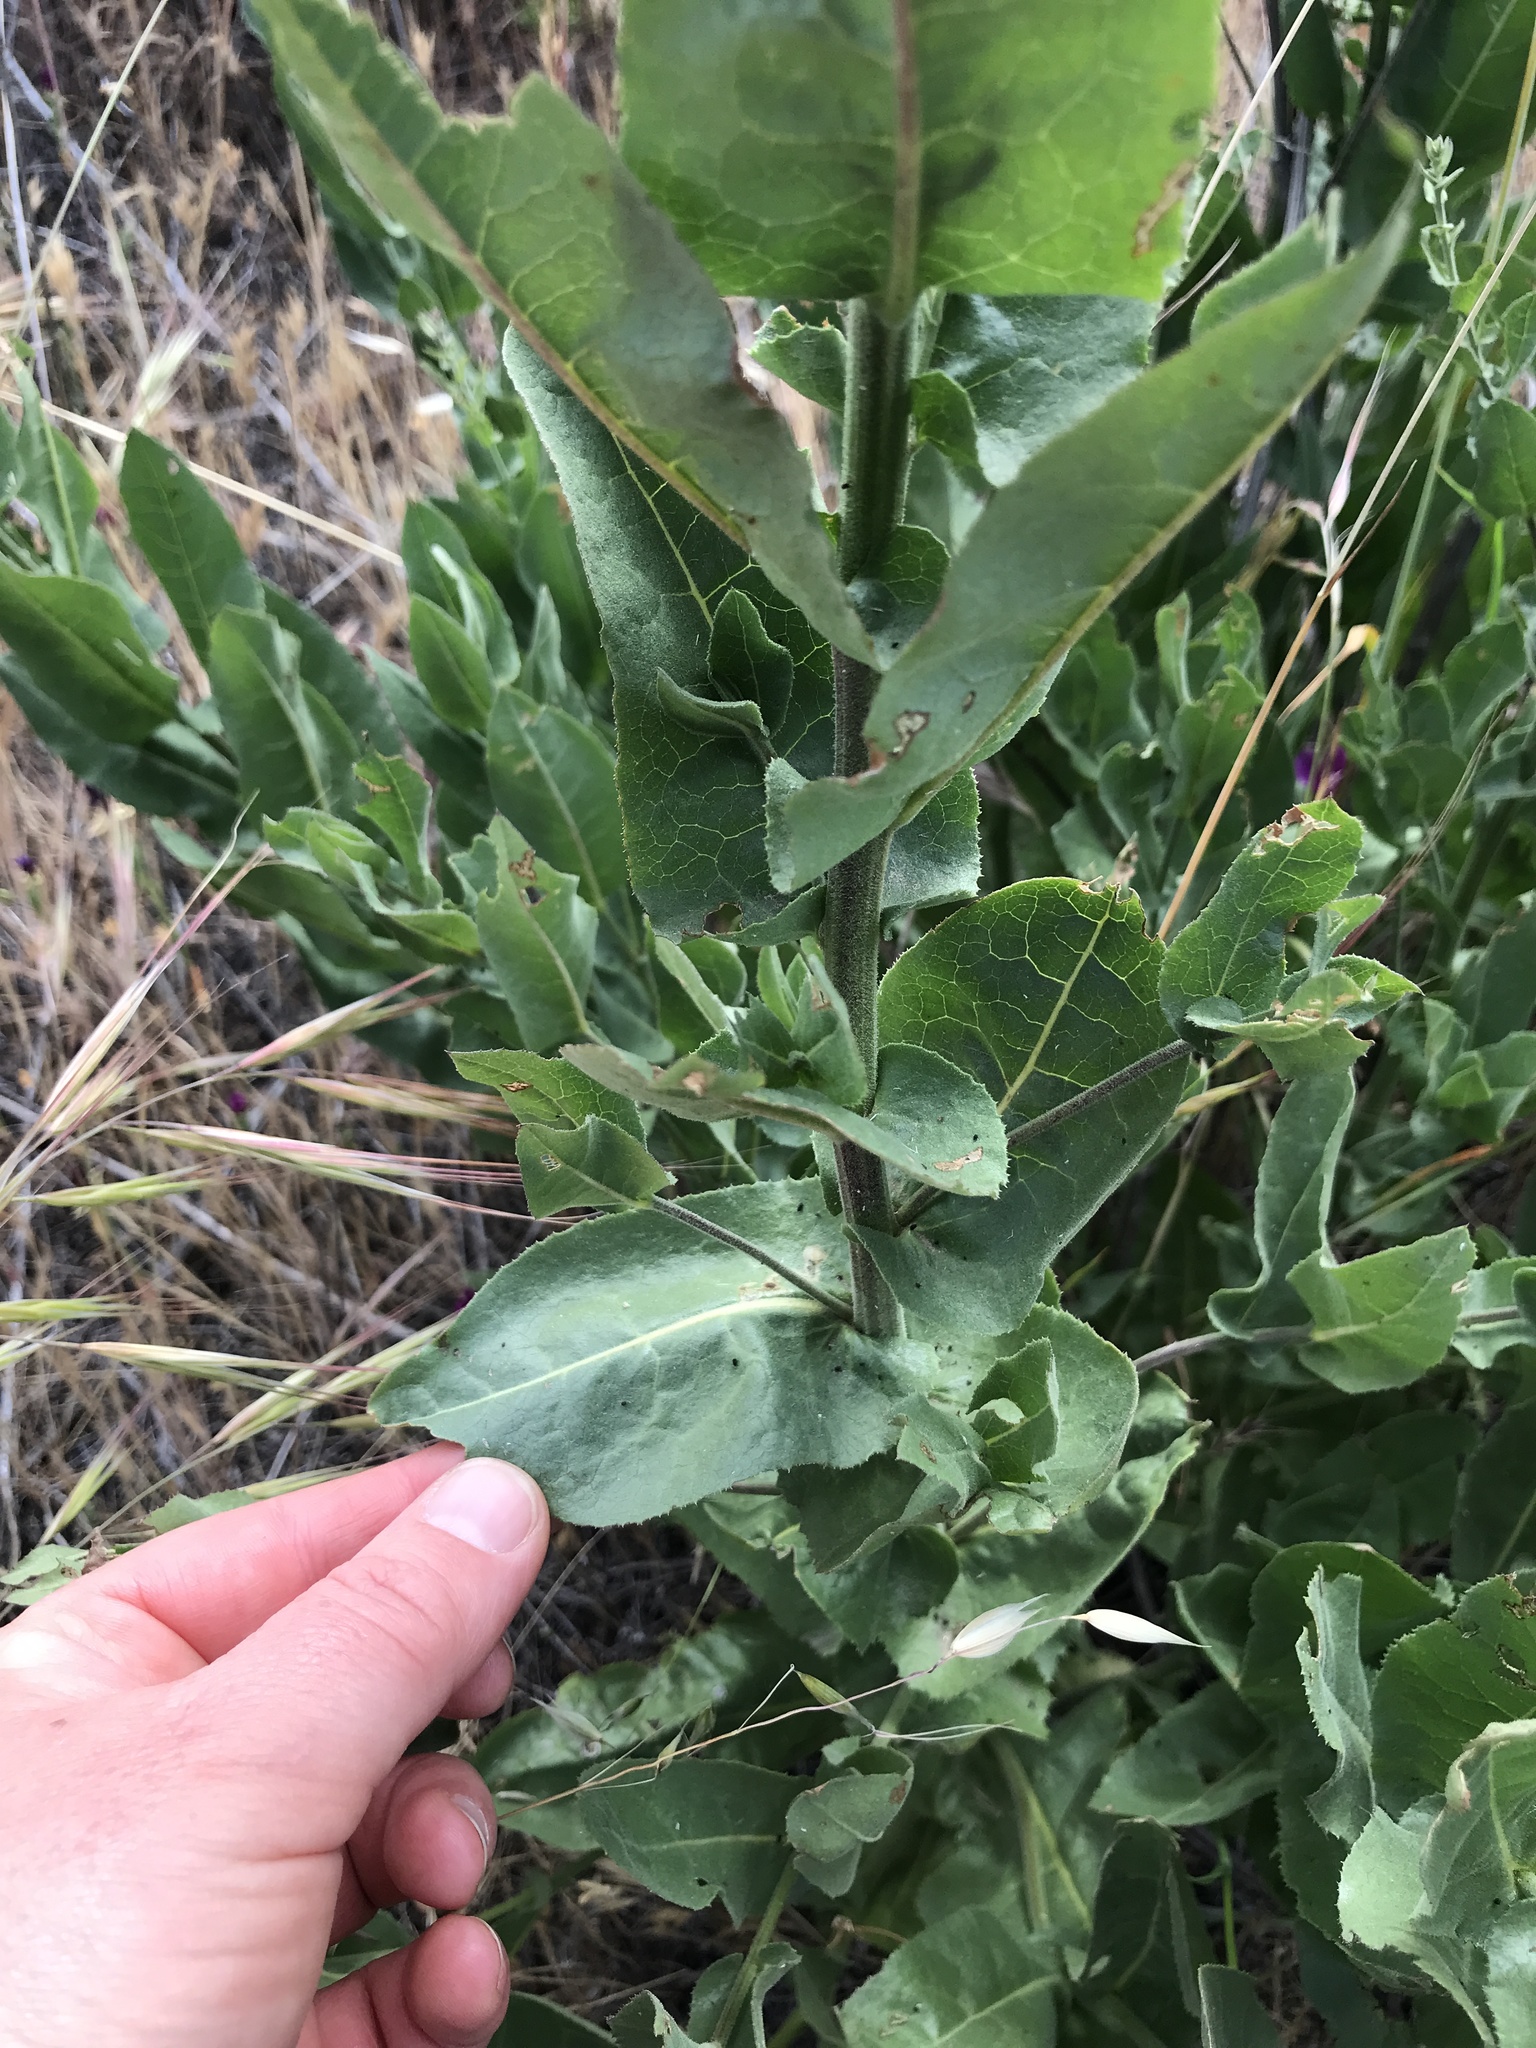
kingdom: Plantae
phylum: Tracheophyta
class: Magnoliopsida
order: Asterales
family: Asteraceae
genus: Acourtia
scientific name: Acourtia microcephala
